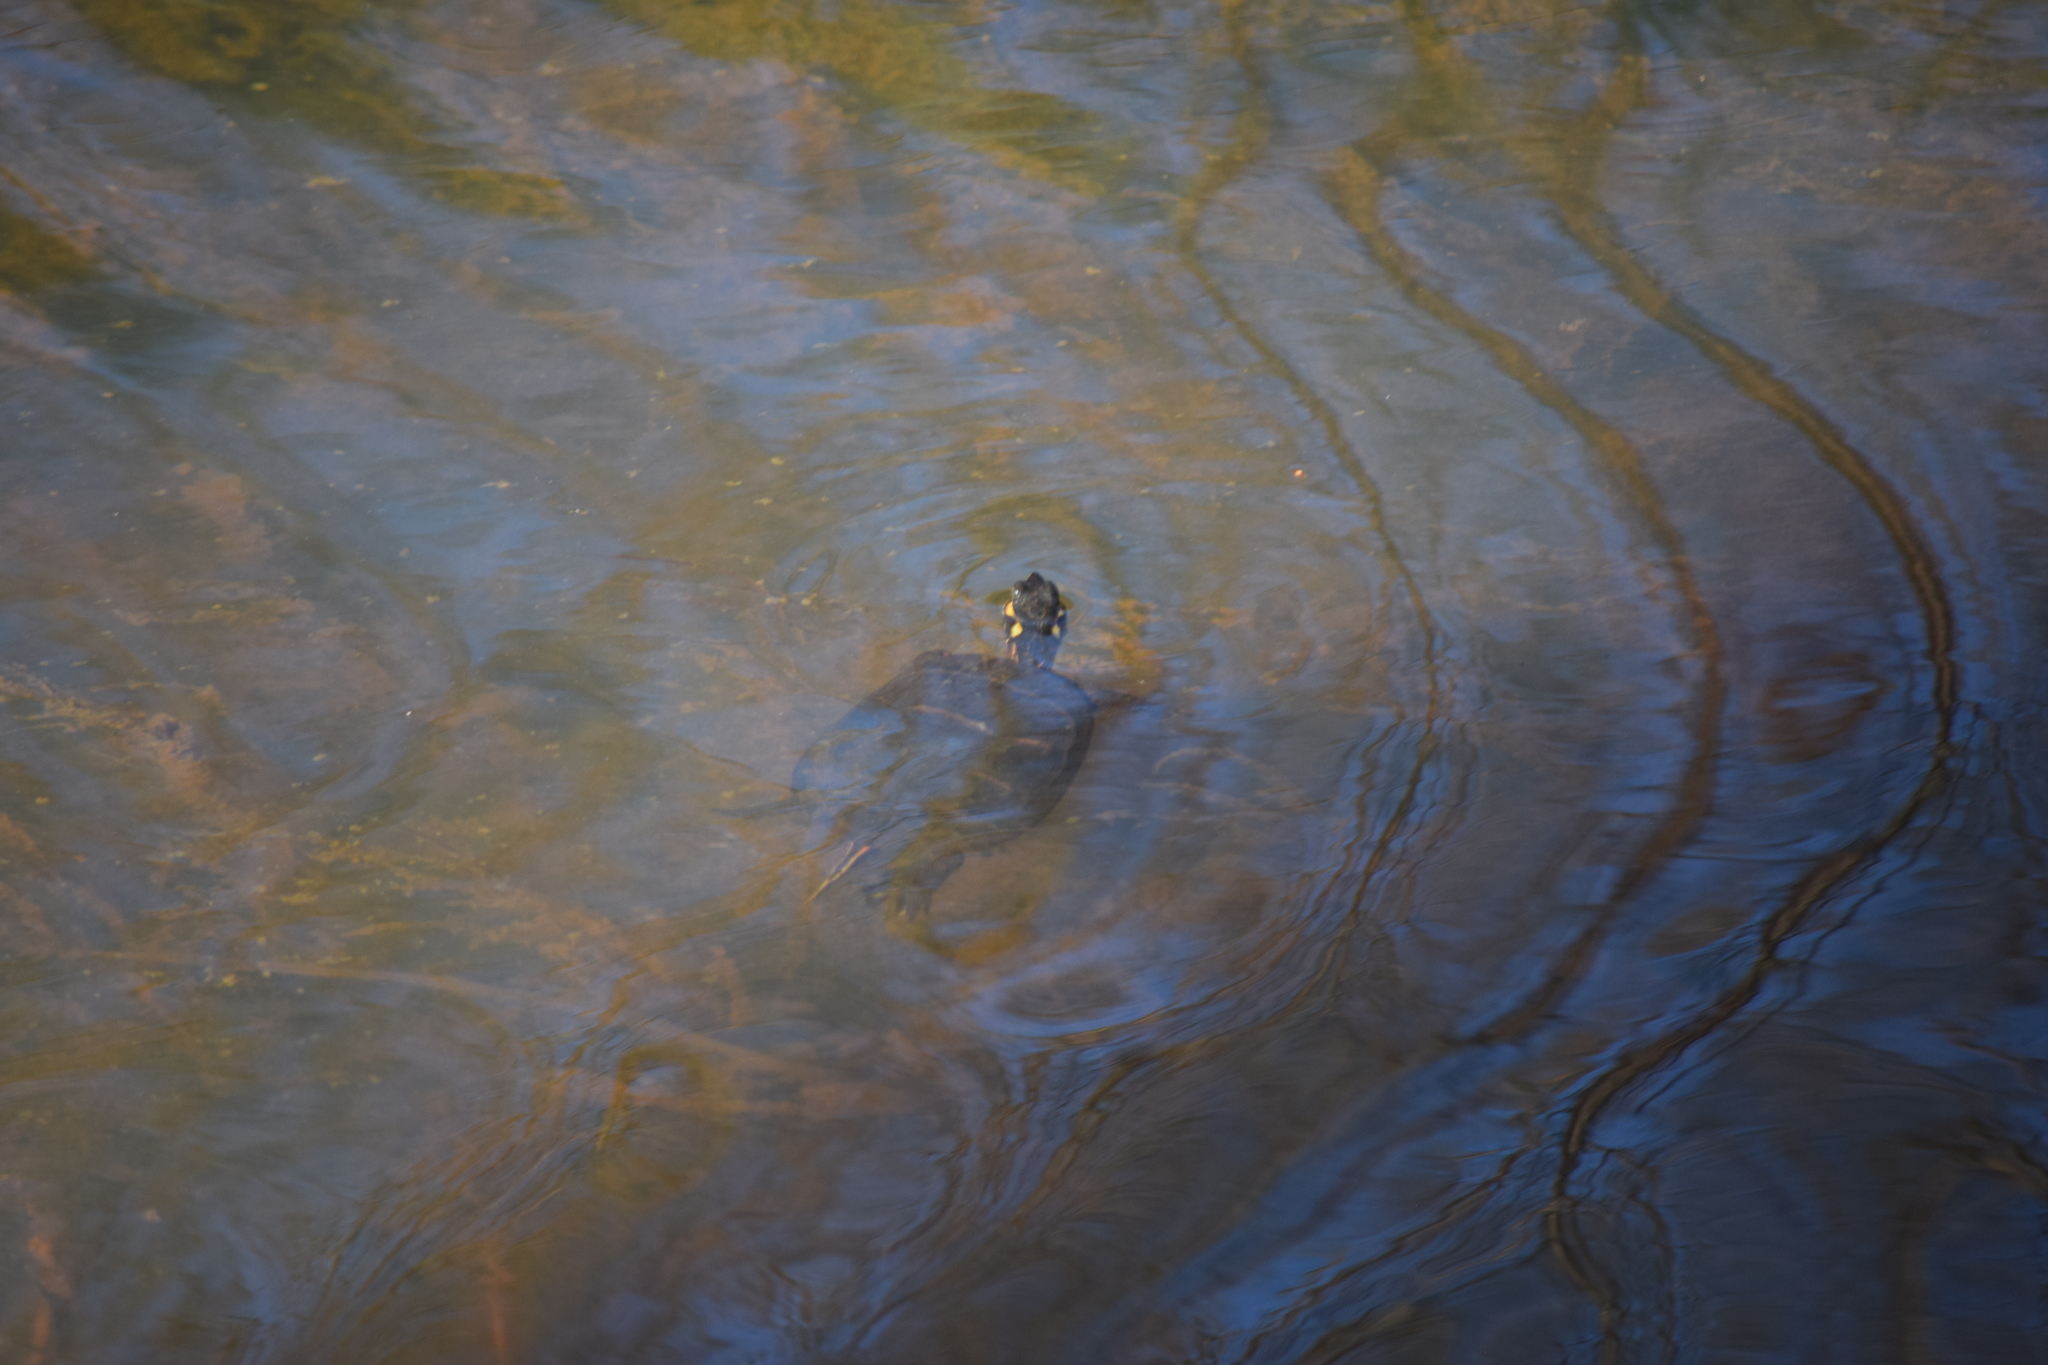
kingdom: Animalia
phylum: Chordata
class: Testudines
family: Emydidae
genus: Chrysemys
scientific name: Chrysemys picta
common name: Painted turtle
